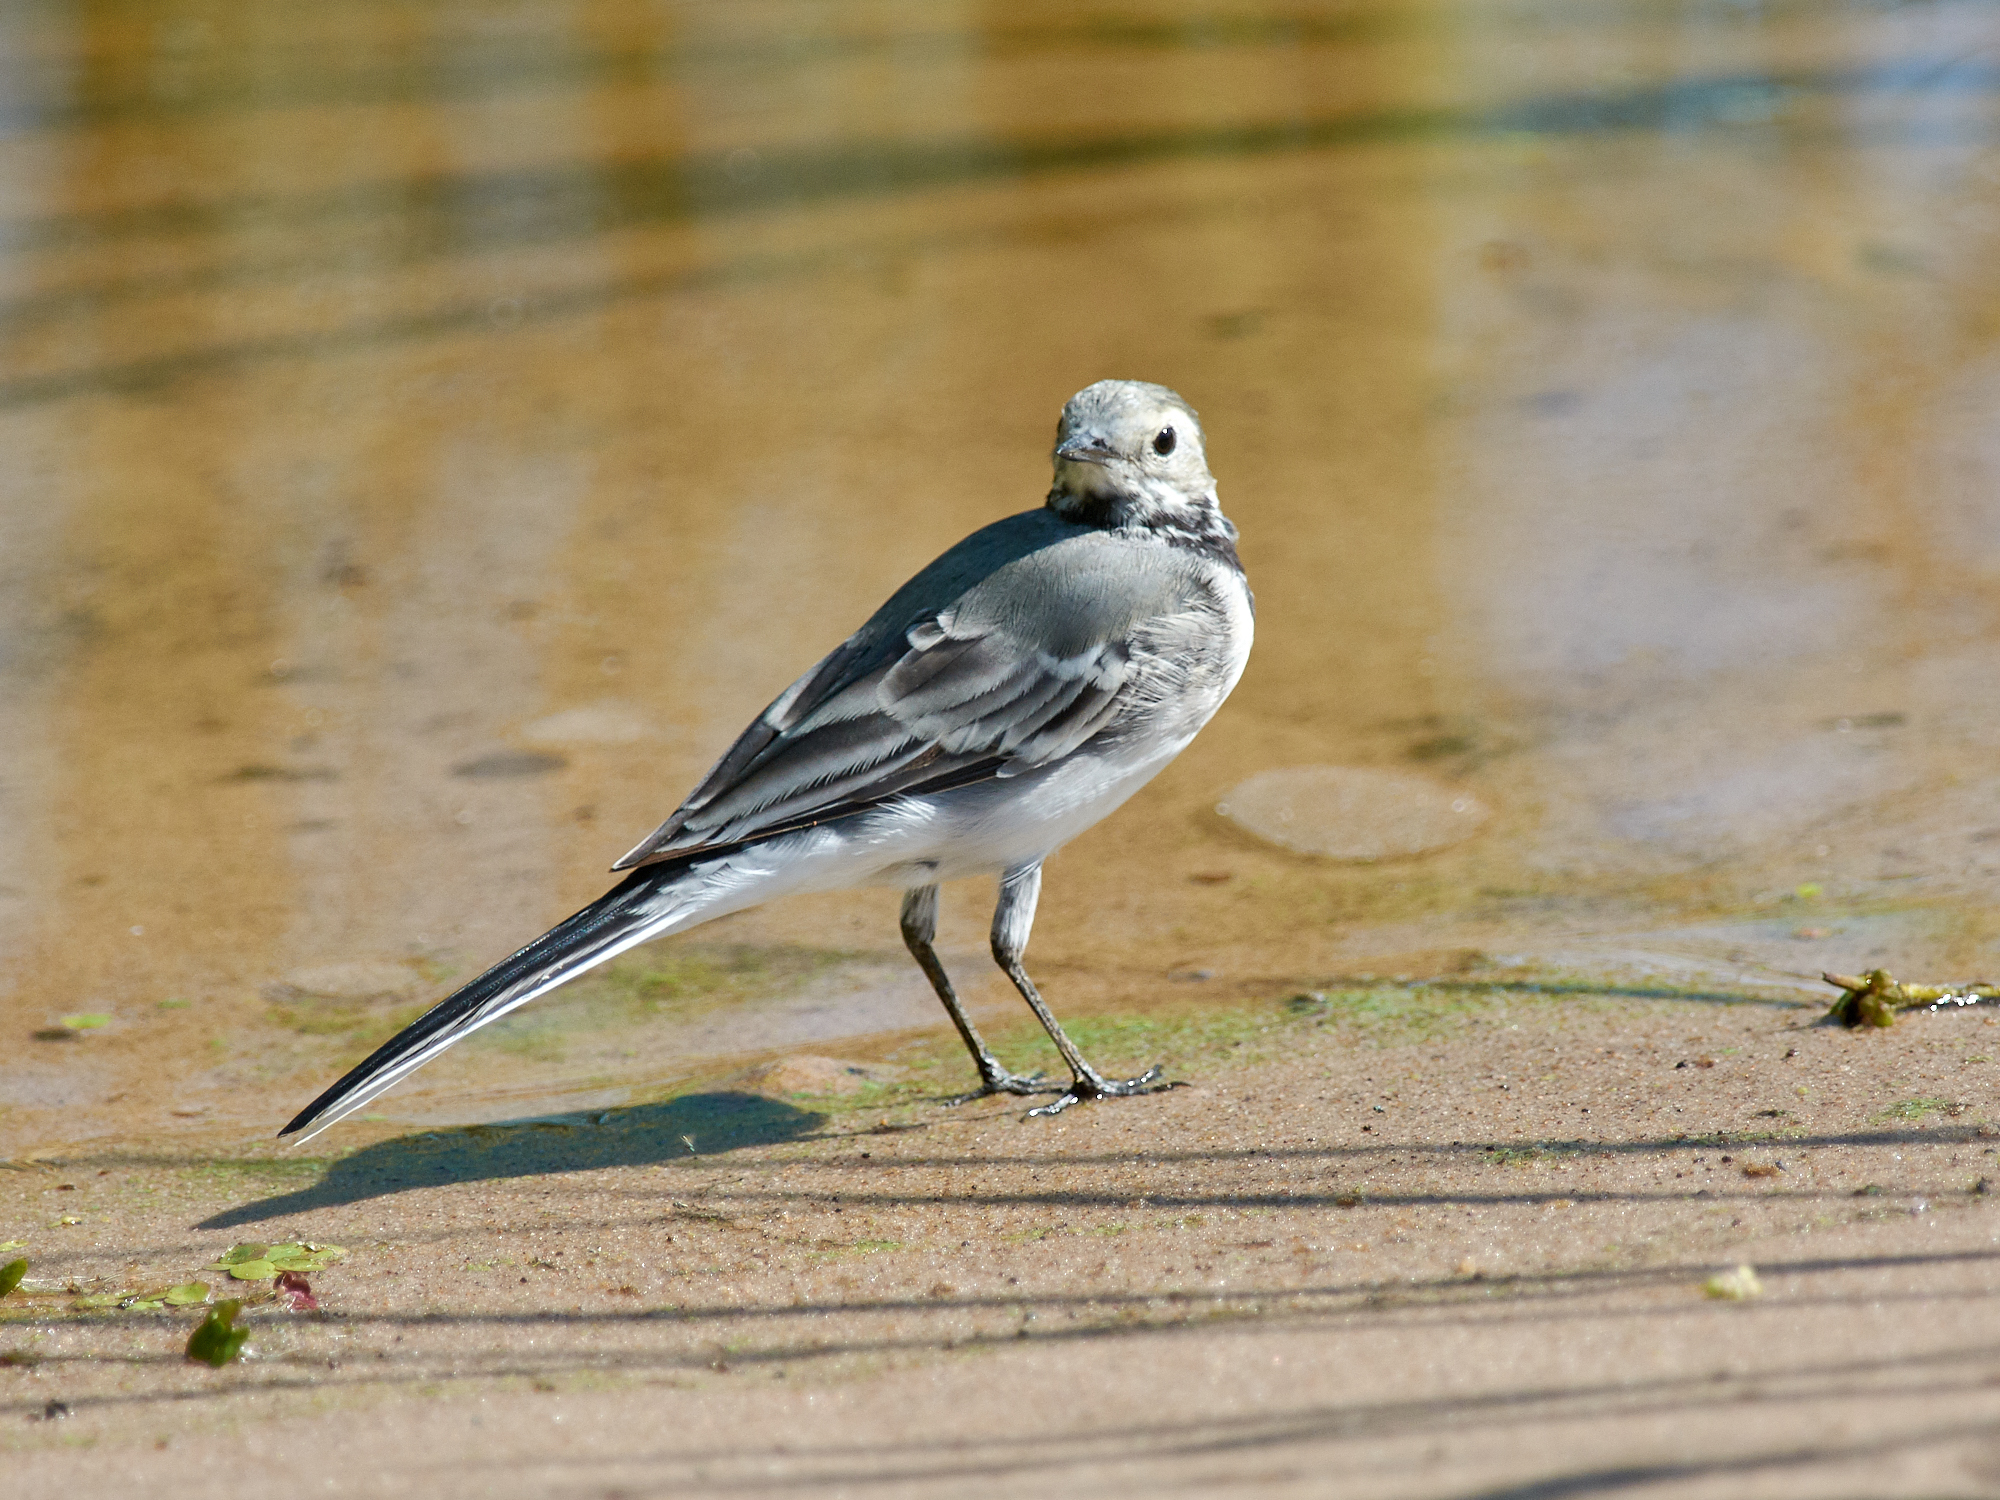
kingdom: Animalia
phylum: Chordata
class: Aves
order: Passeriformes
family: Motacillidae
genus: Motacilla
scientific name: Motacilla alba
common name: White wagtail
